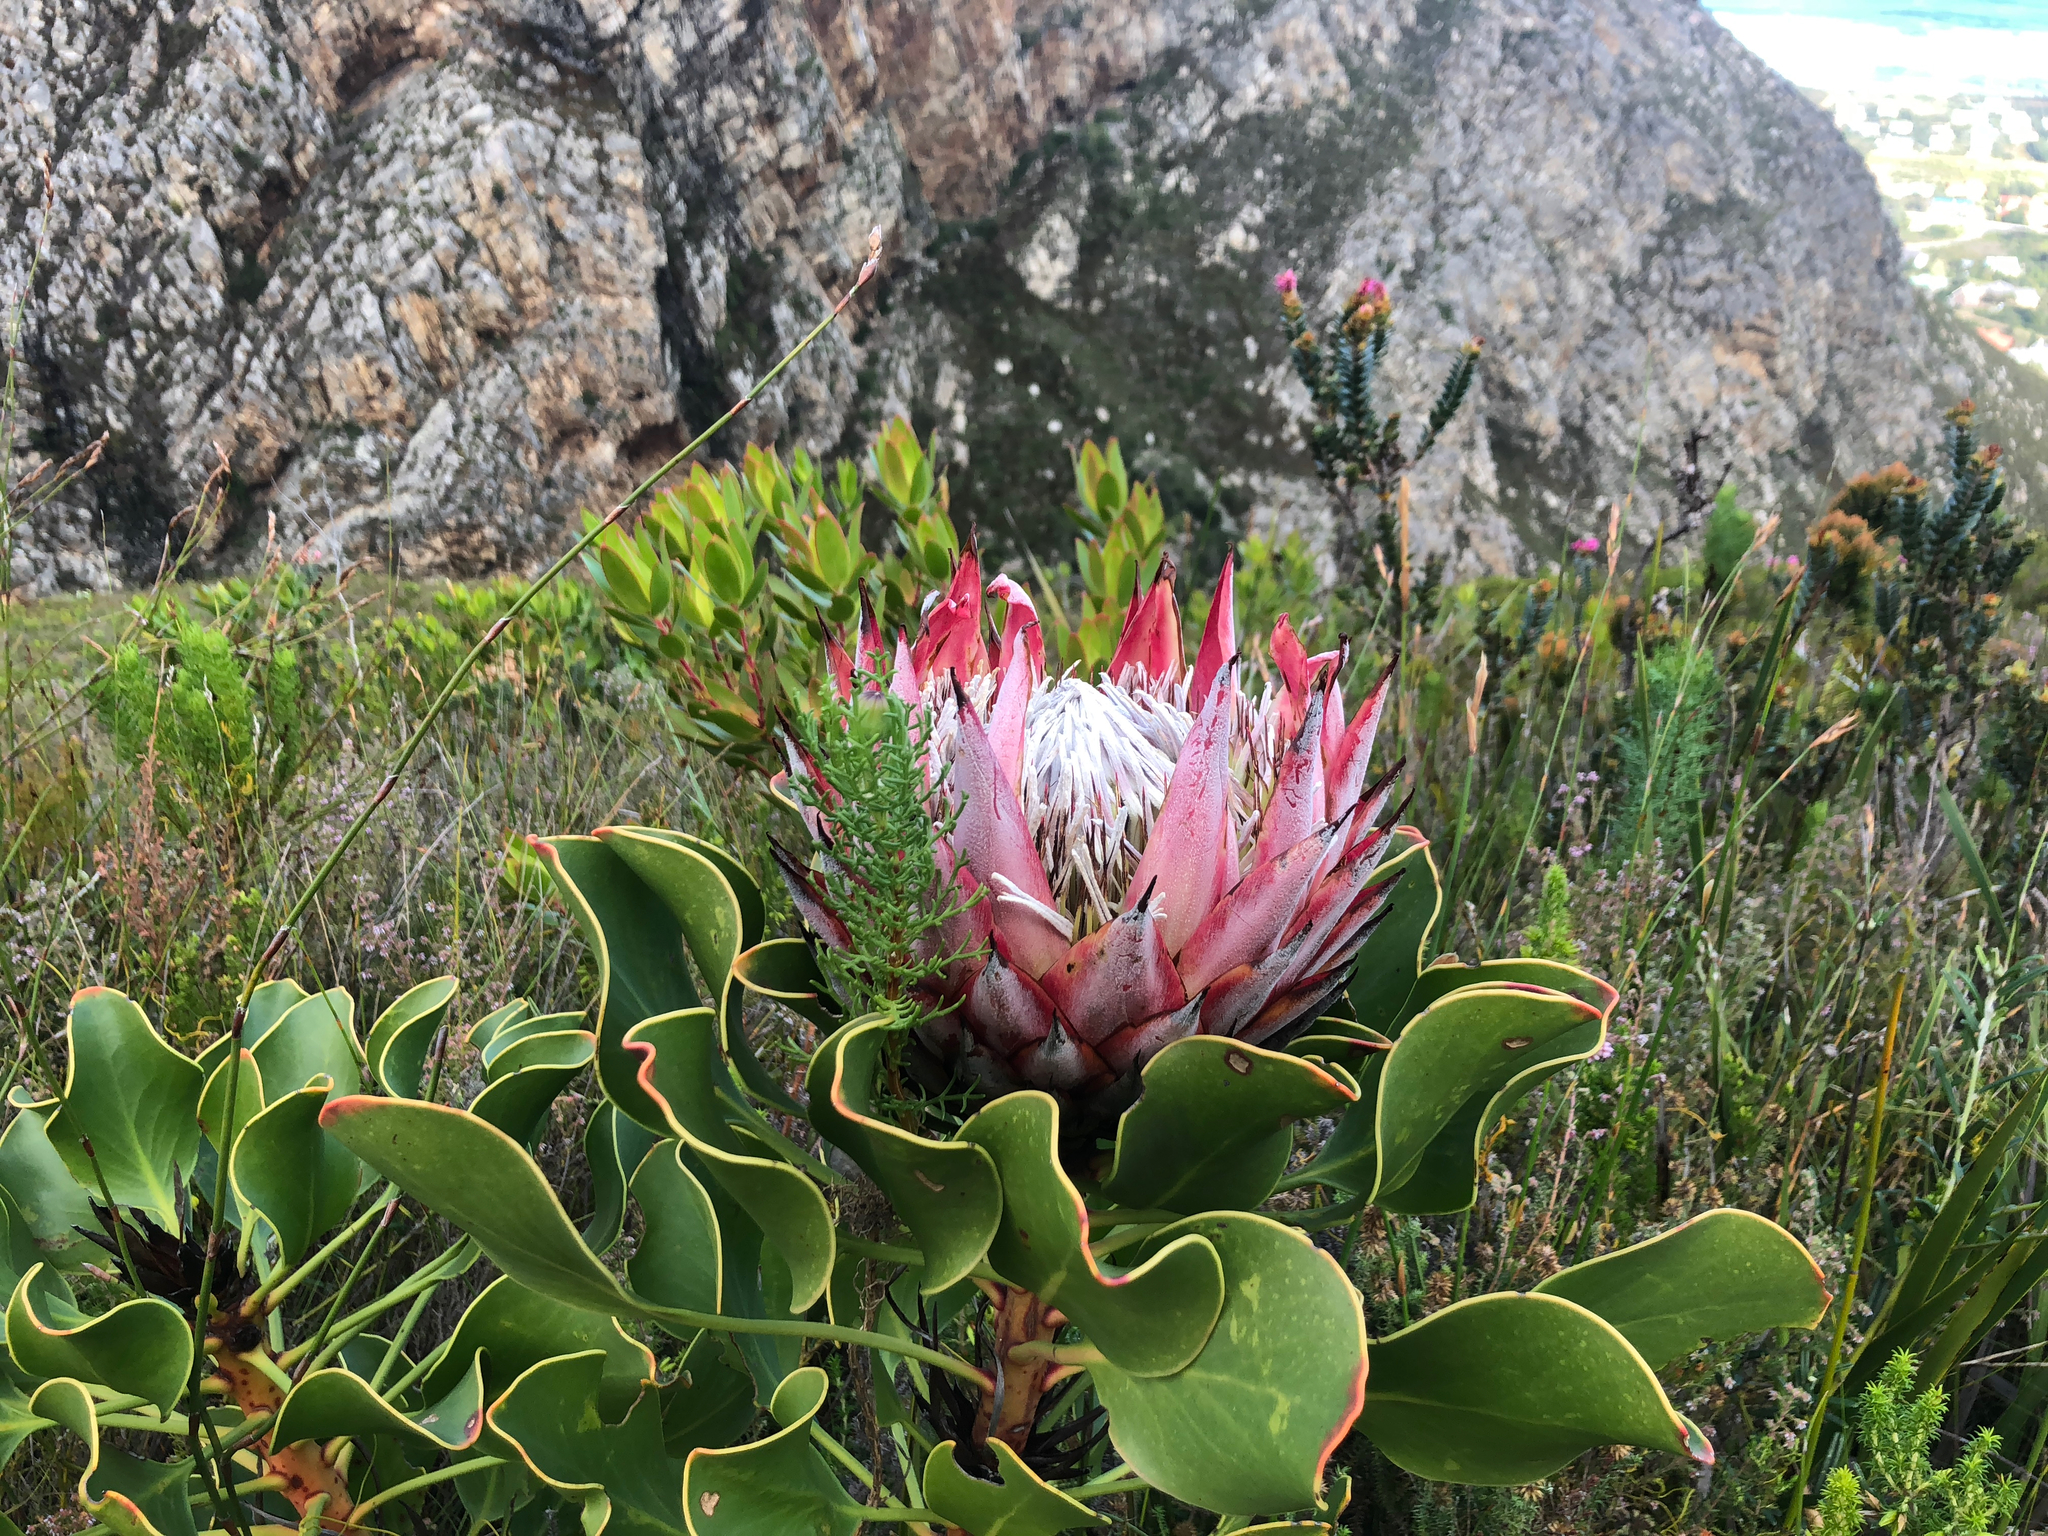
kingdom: Plantae
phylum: Tracheophyta
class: Magnoliopsida
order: Proteales
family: Proteaceae
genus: Protea
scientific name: Protea cynaroides
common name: King protea
